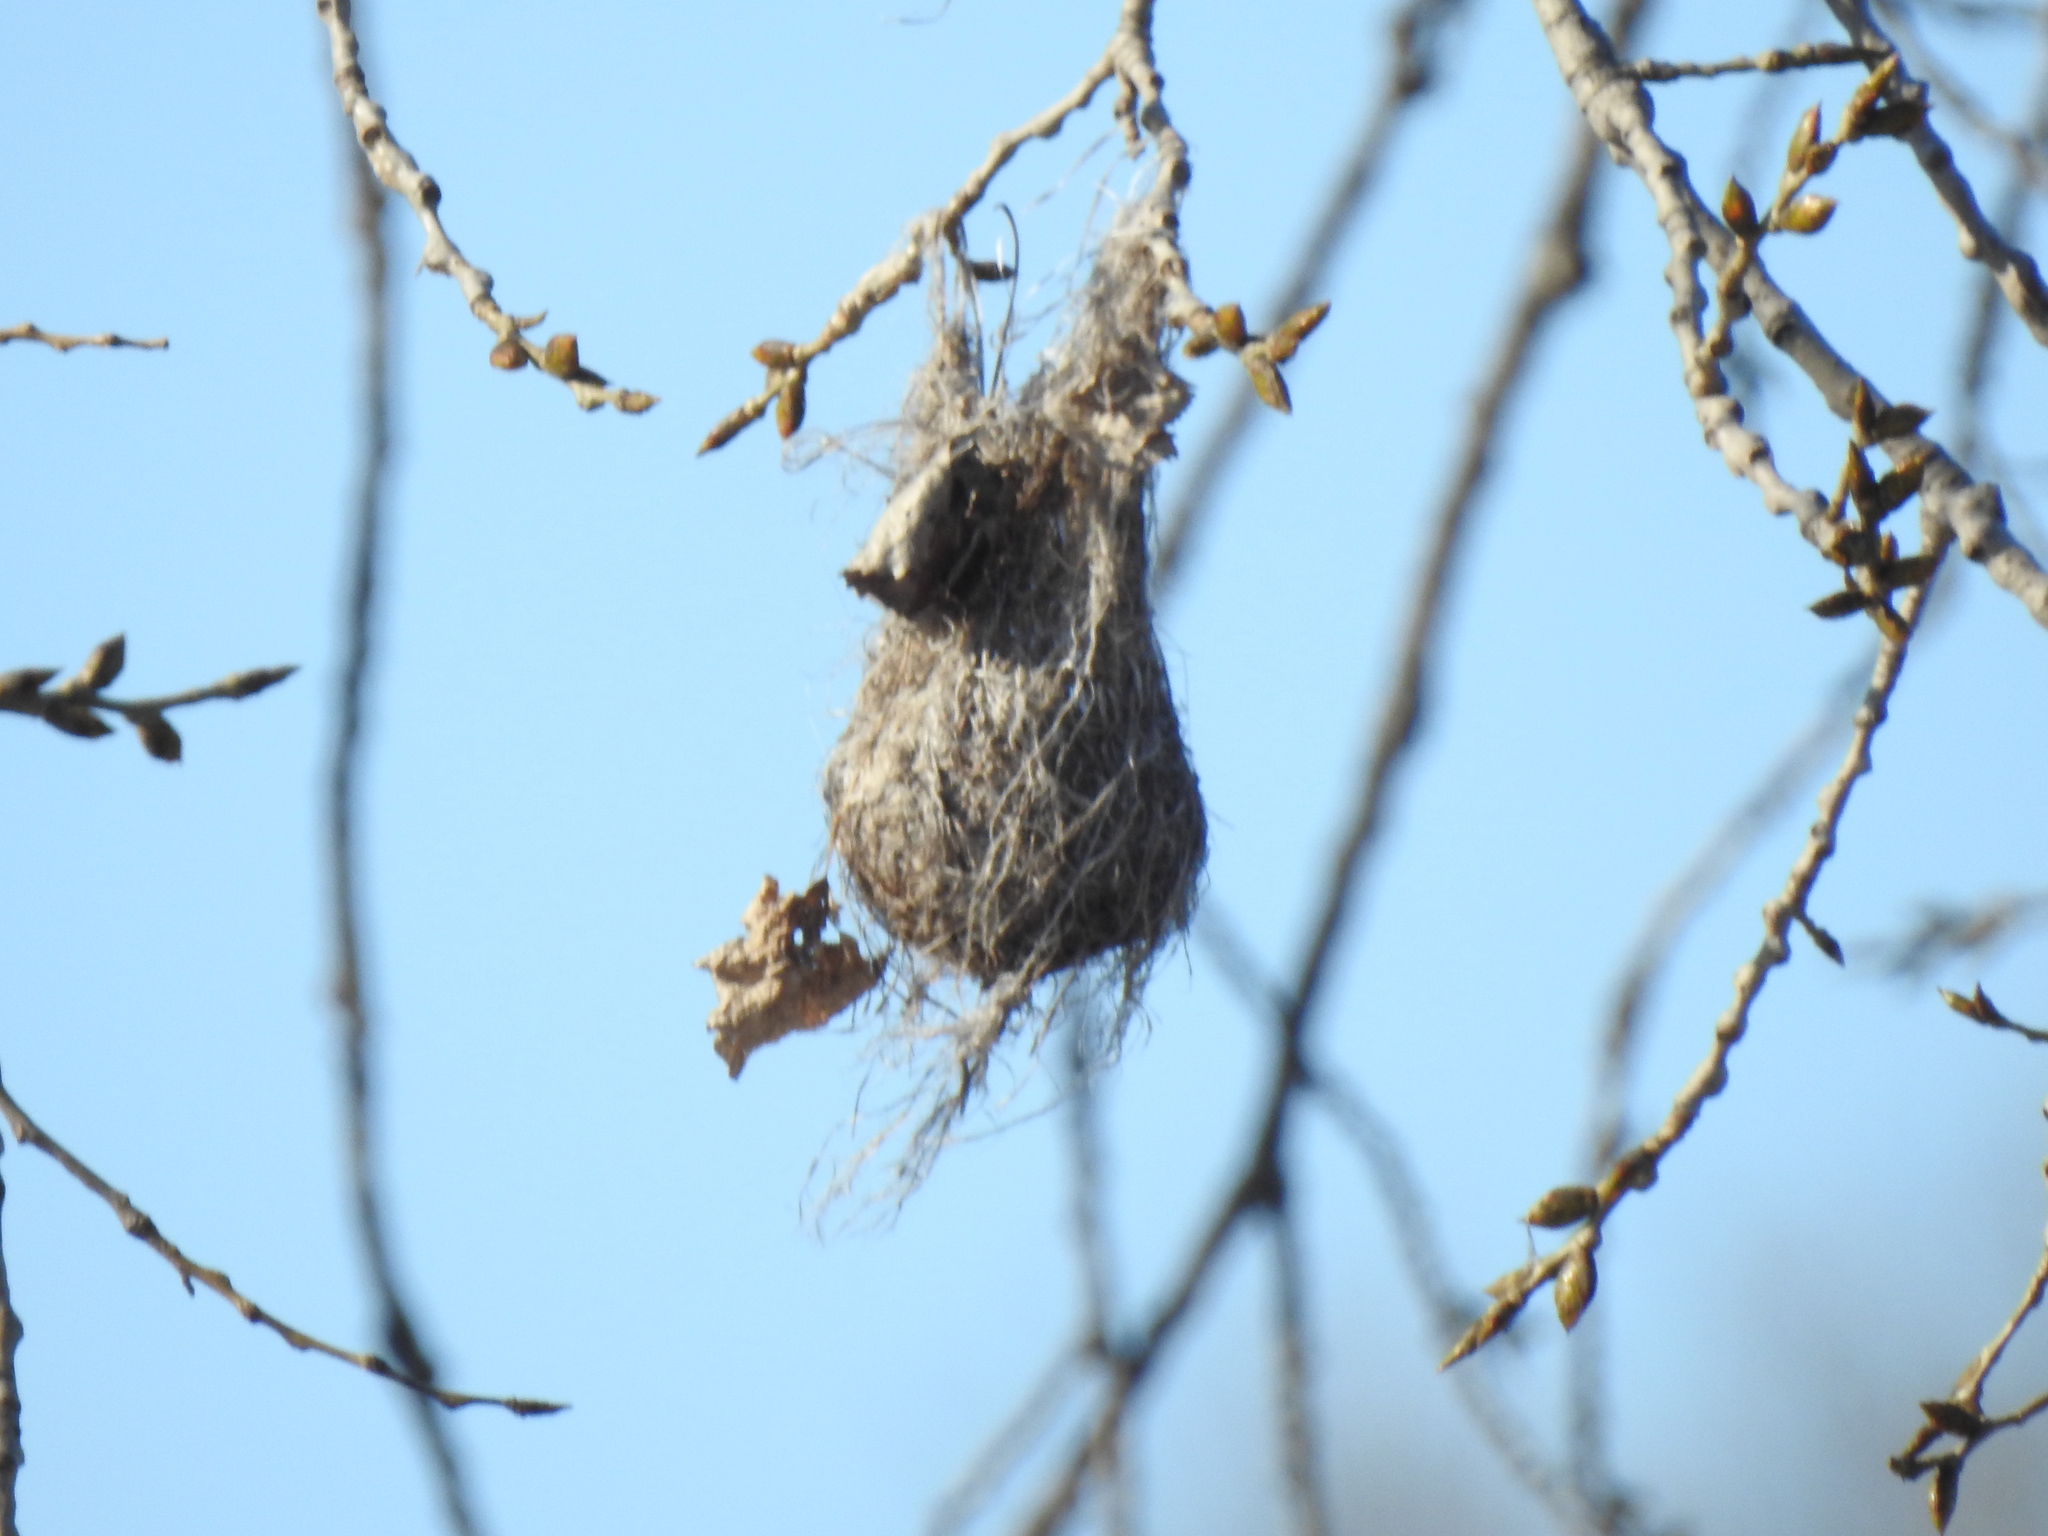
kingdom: Animalia
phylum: Chordata
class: Aves
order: Passeriformes
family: Icteridae
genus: Icterus
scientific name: Icterus galbula
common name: Baltimore oriole
